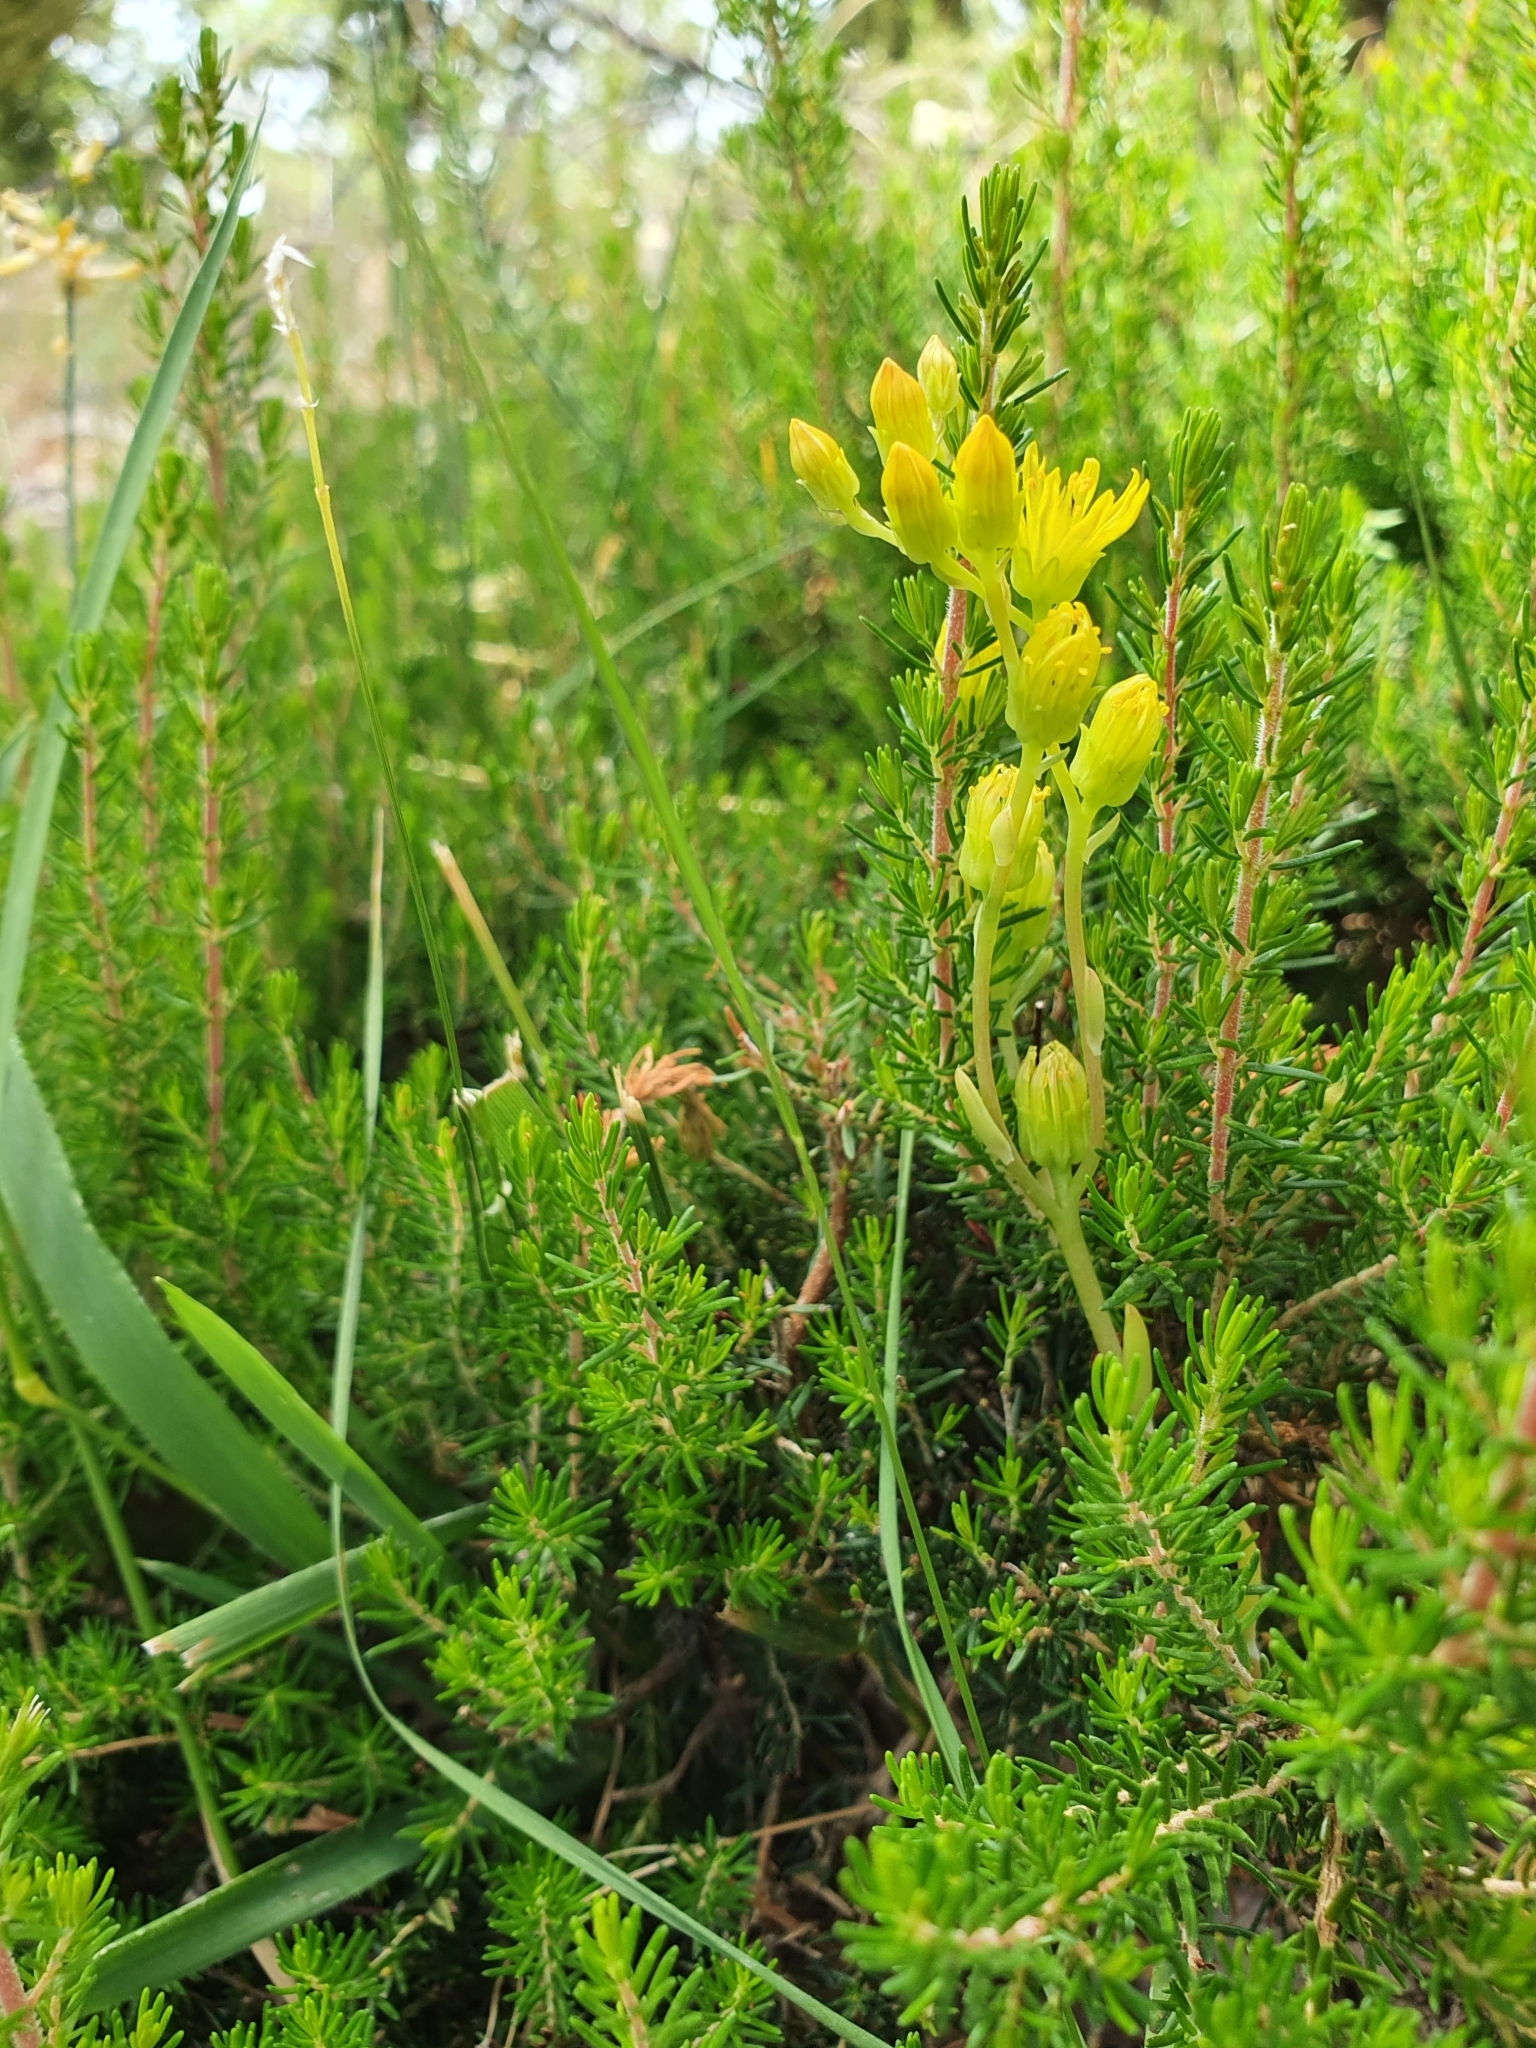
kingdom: Plantae
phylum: Tracheophyta
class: Magnoliopsida
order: Saxifragales
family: Crassulaceae
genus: Petrosedum
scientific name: Petrosedum amplexicaule
